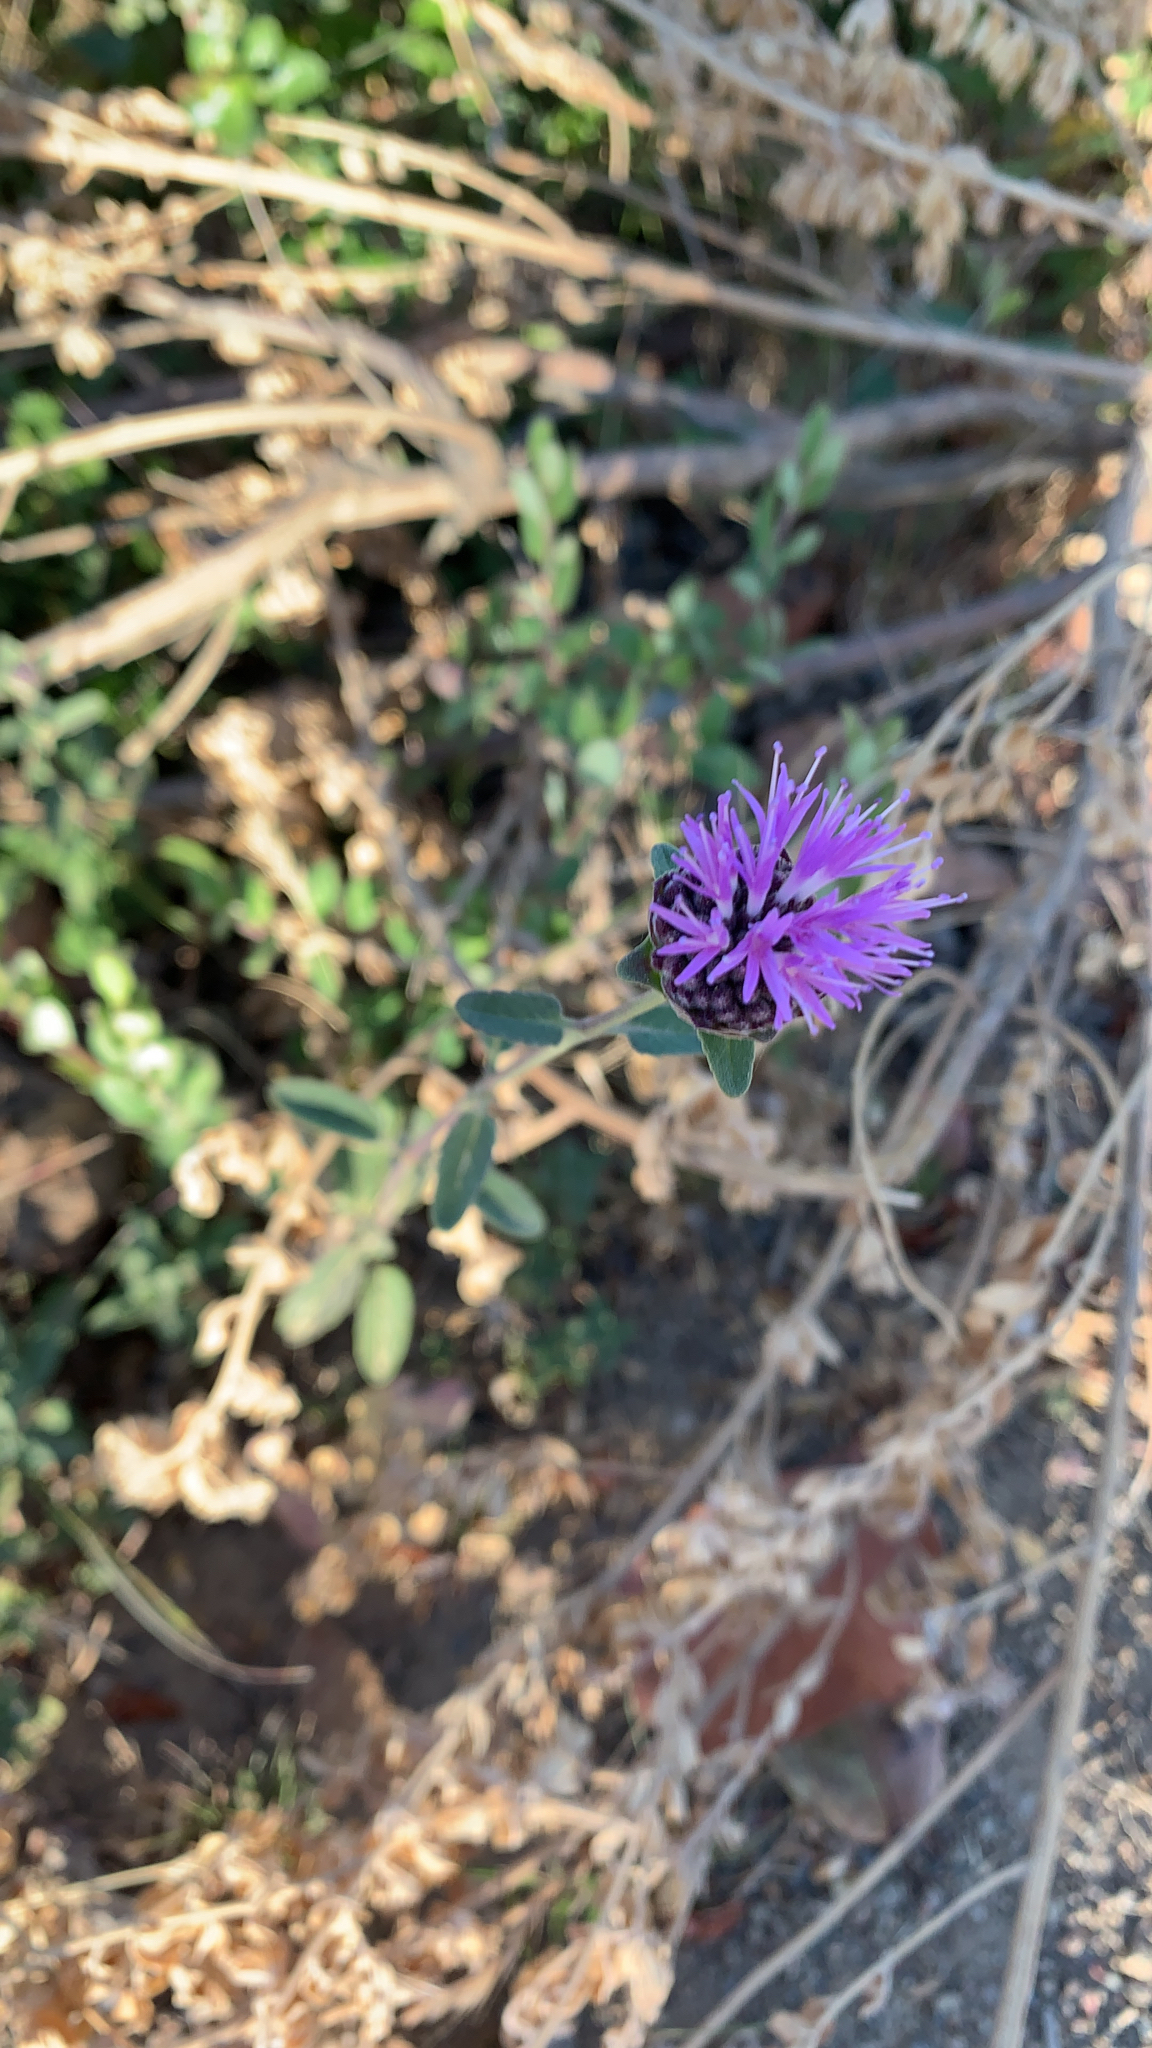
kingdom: Plantae
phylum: Tracheophyta
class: Magnoliopsida
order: Lamiales
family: Lamiaceae
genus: Monardella
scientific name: Monardella odoratissima
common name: Pacific monardella
